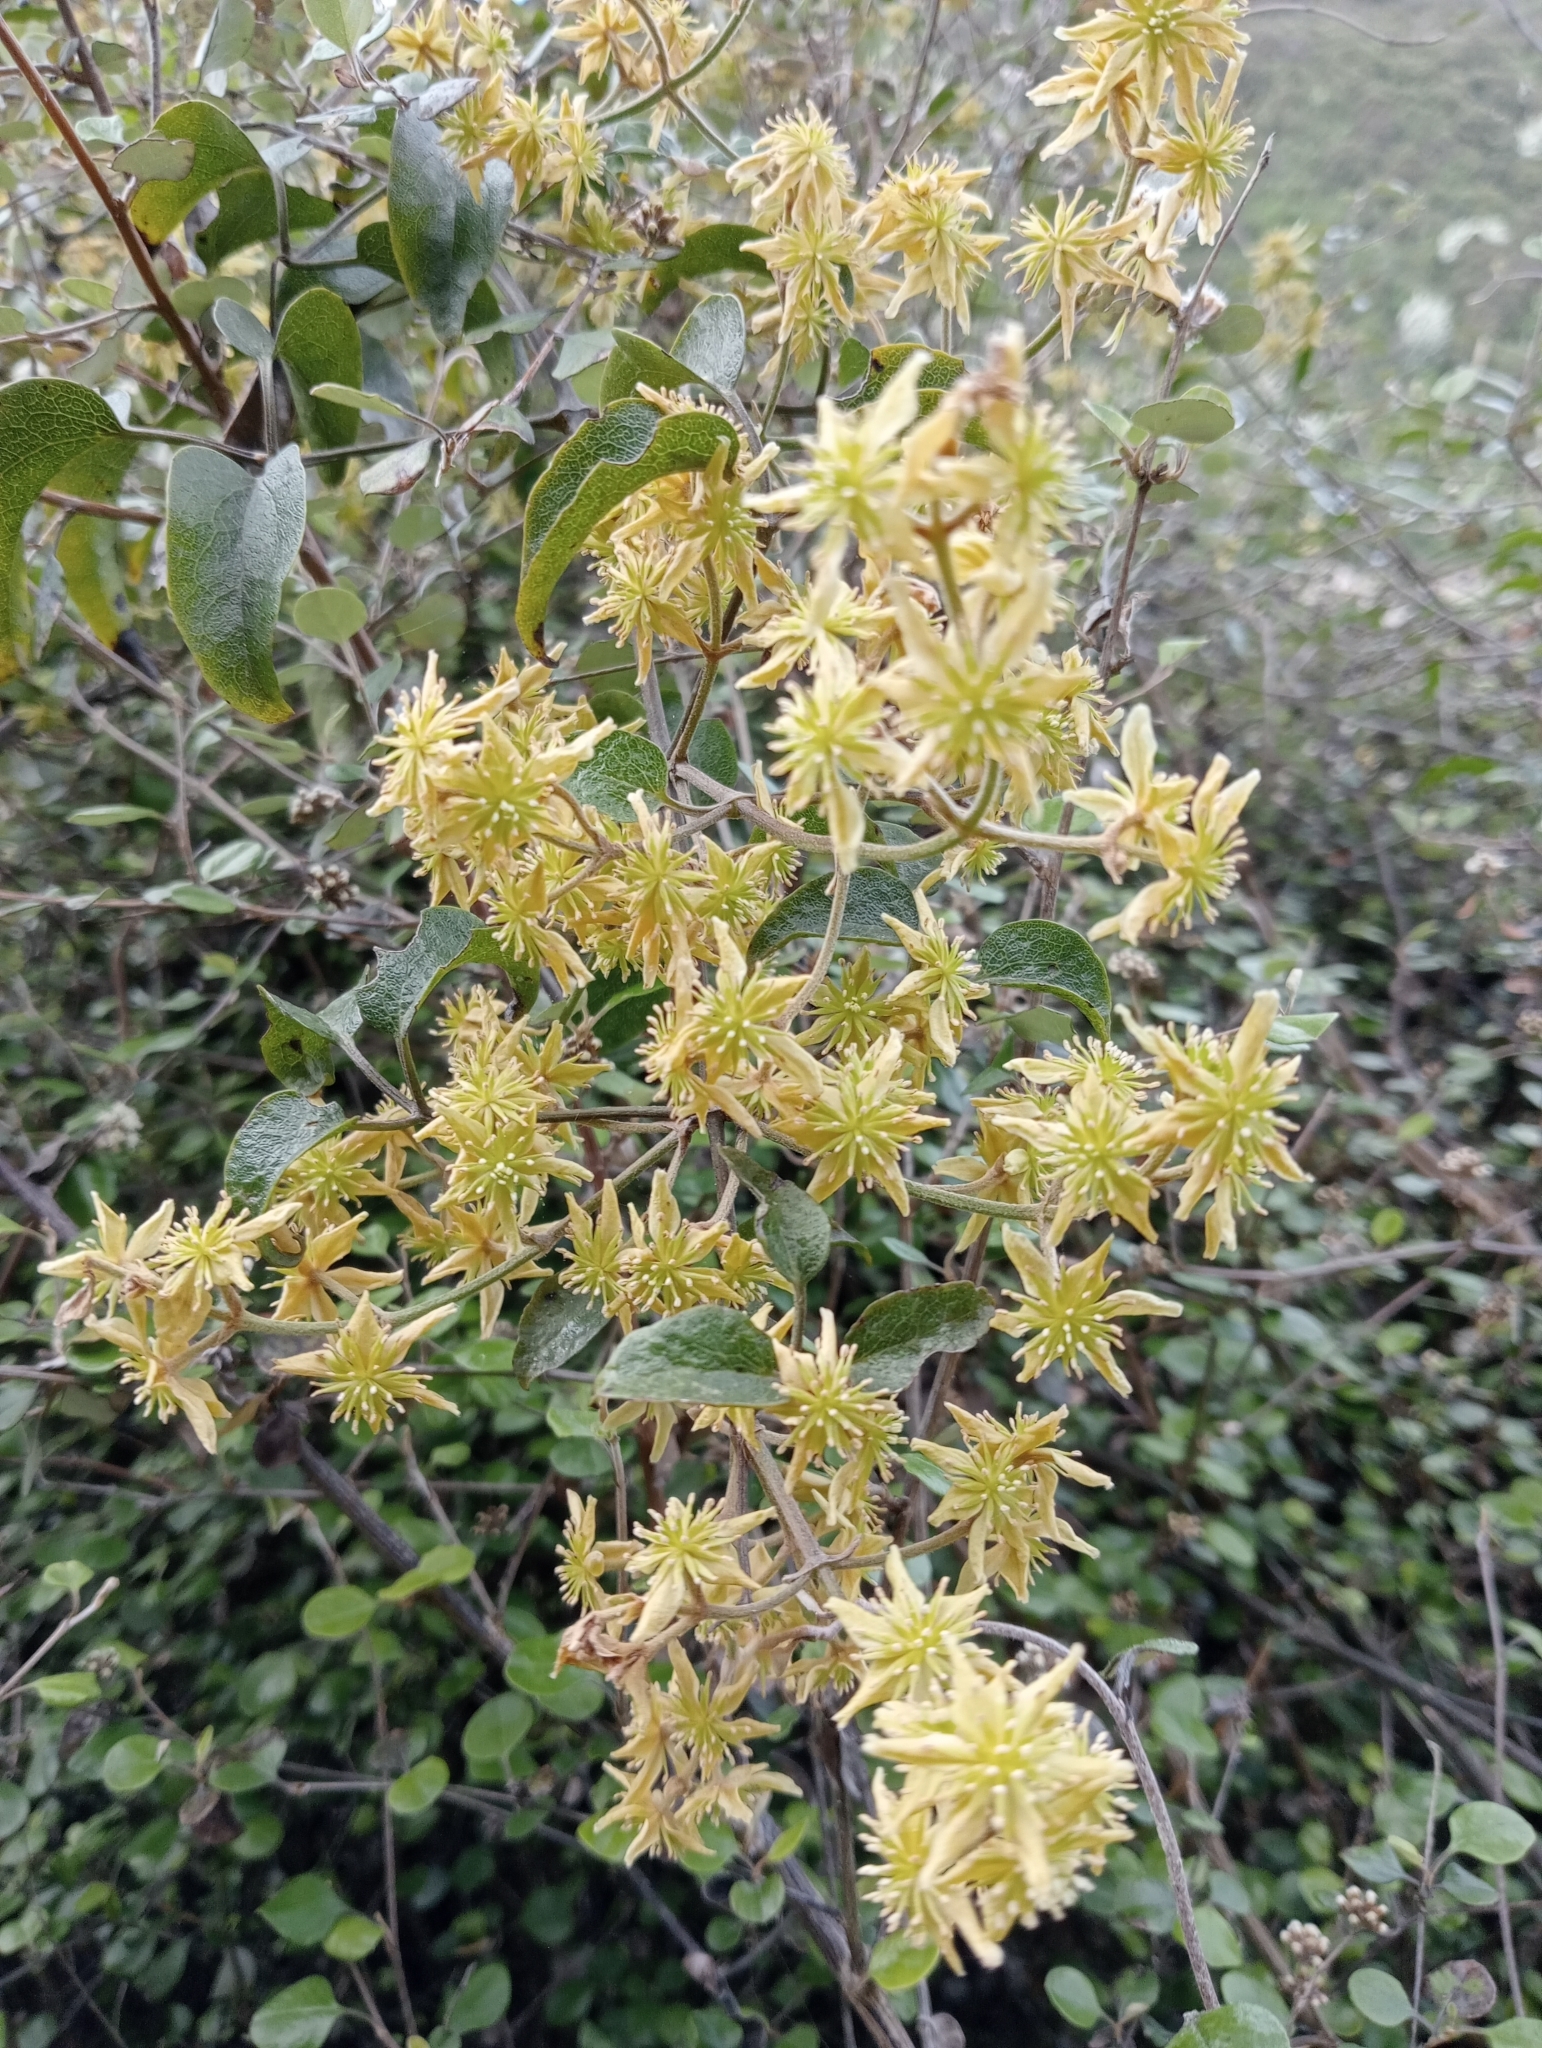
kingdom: Plantae
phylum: Tracheophyta
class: Magnoliopsida
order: Ranunculales
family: Ranunculaceae
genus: Clematis
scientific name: Clematis foetida
